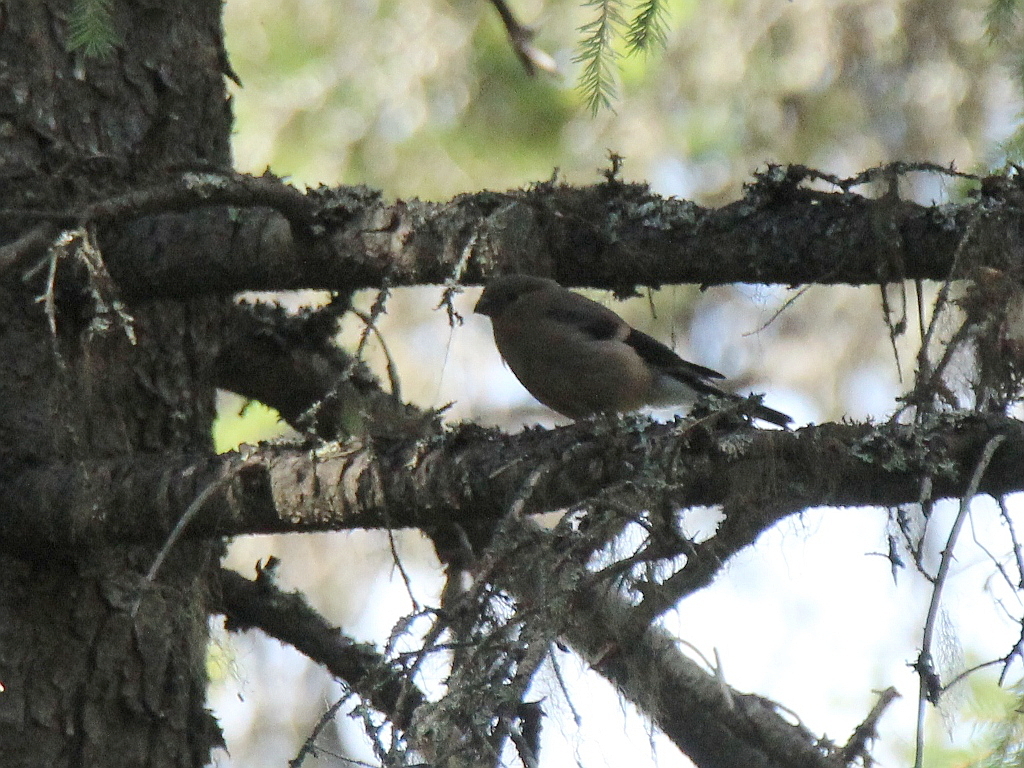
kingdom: Animalia
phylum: Chordata
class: Aves
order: Passeriformes
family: Fringillidae
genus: Pyrrhula
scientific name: Pyrrhula pyrrhula
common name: Eurasian bullfinch
